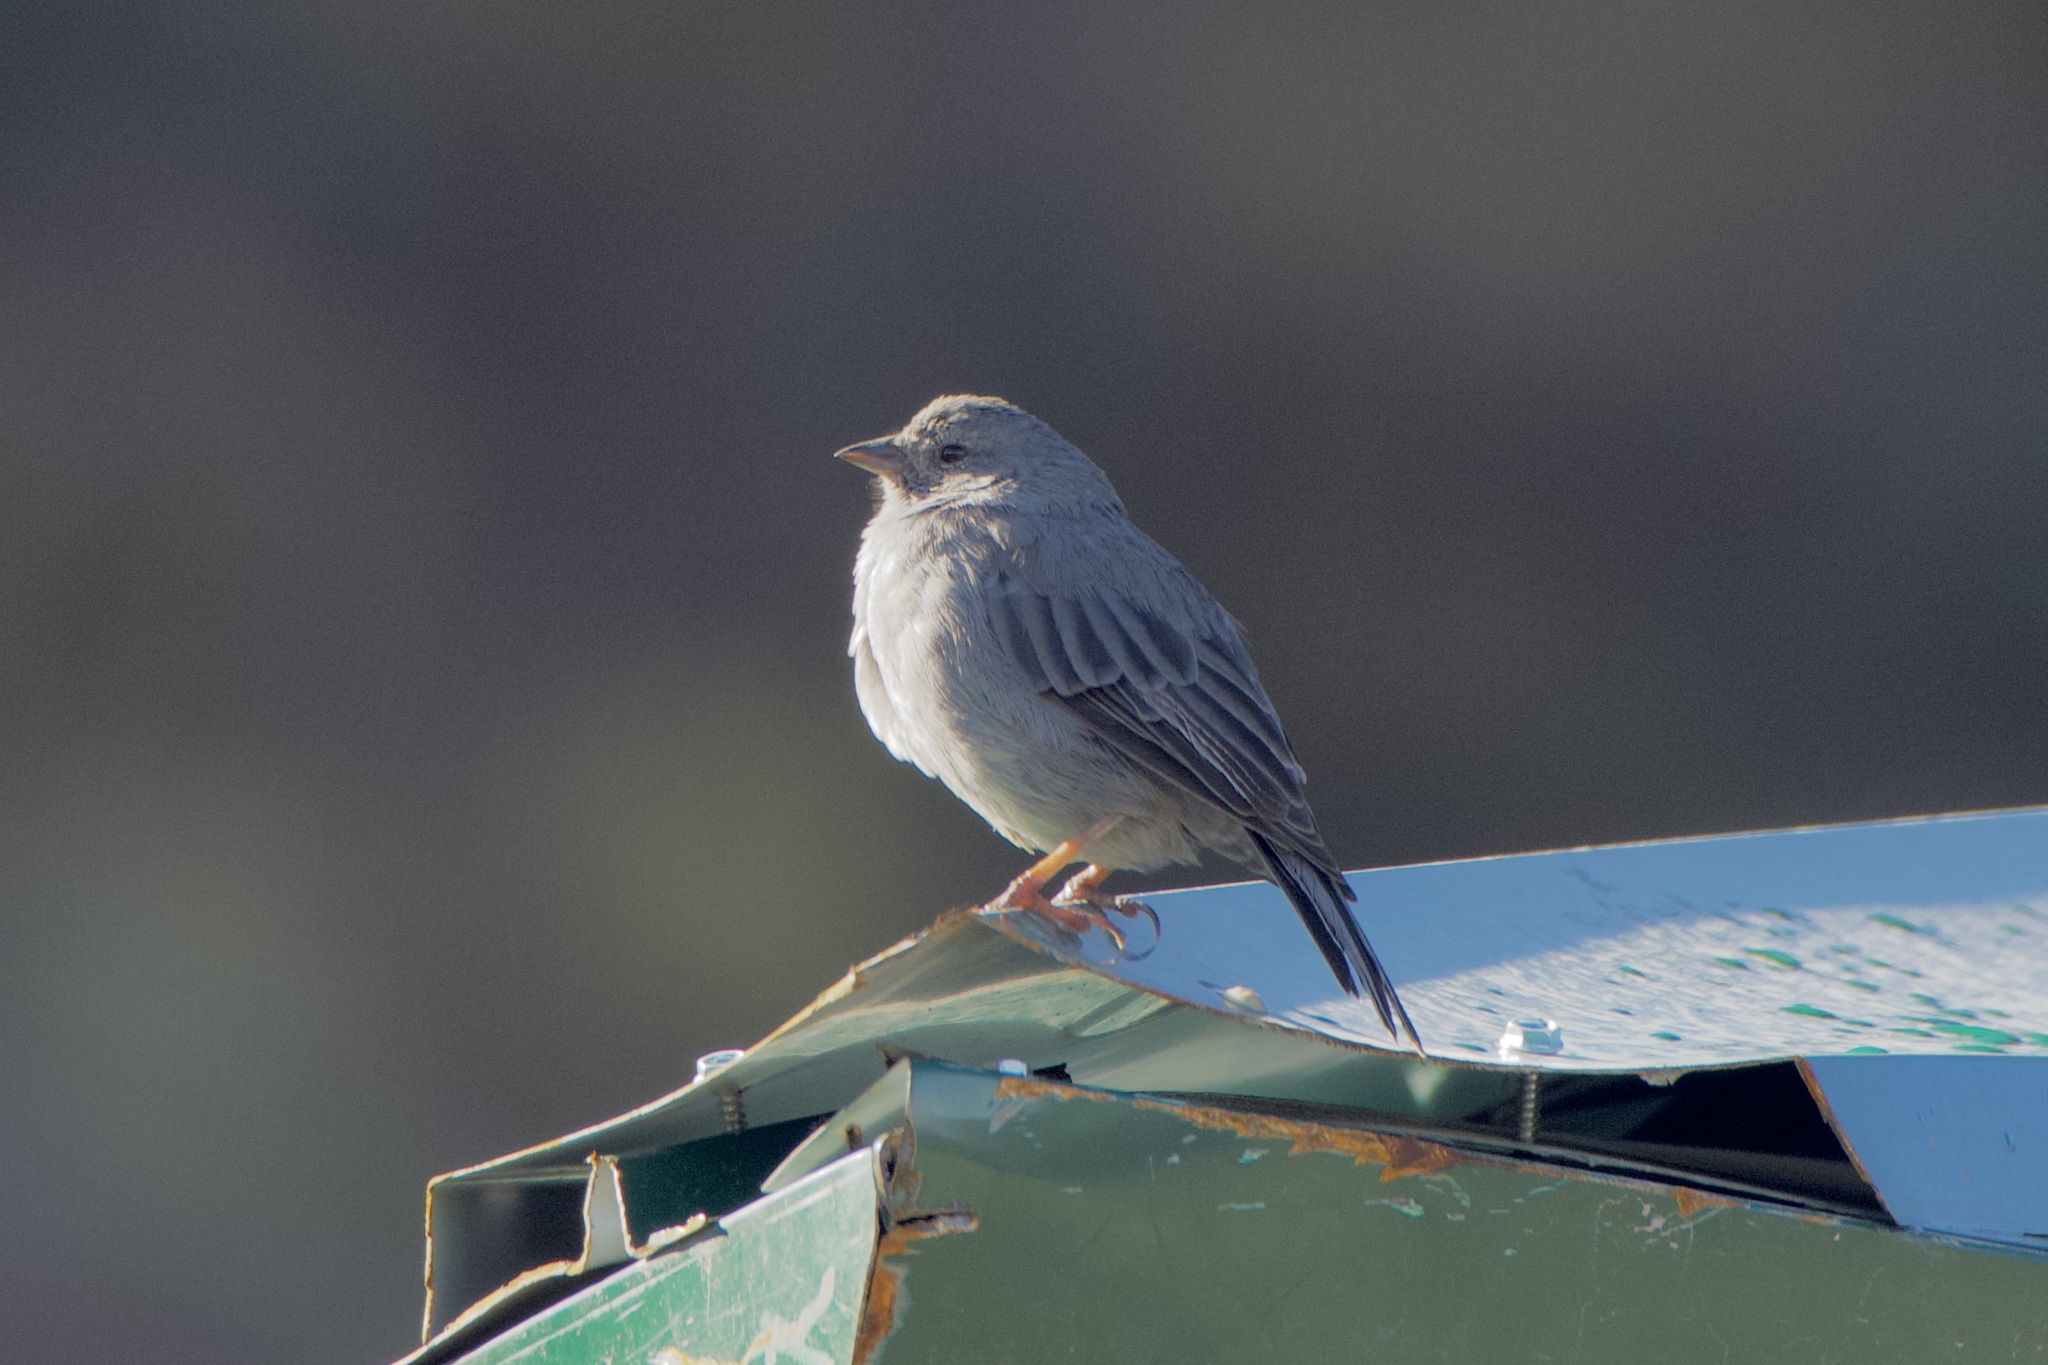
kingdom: Animalia
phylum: Chordata
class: Aves
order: Passeriformes
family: Thraupidae
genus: Geospizopsis
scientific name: Geospizopsis unicolor
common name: Plumbeous sierra-finch
